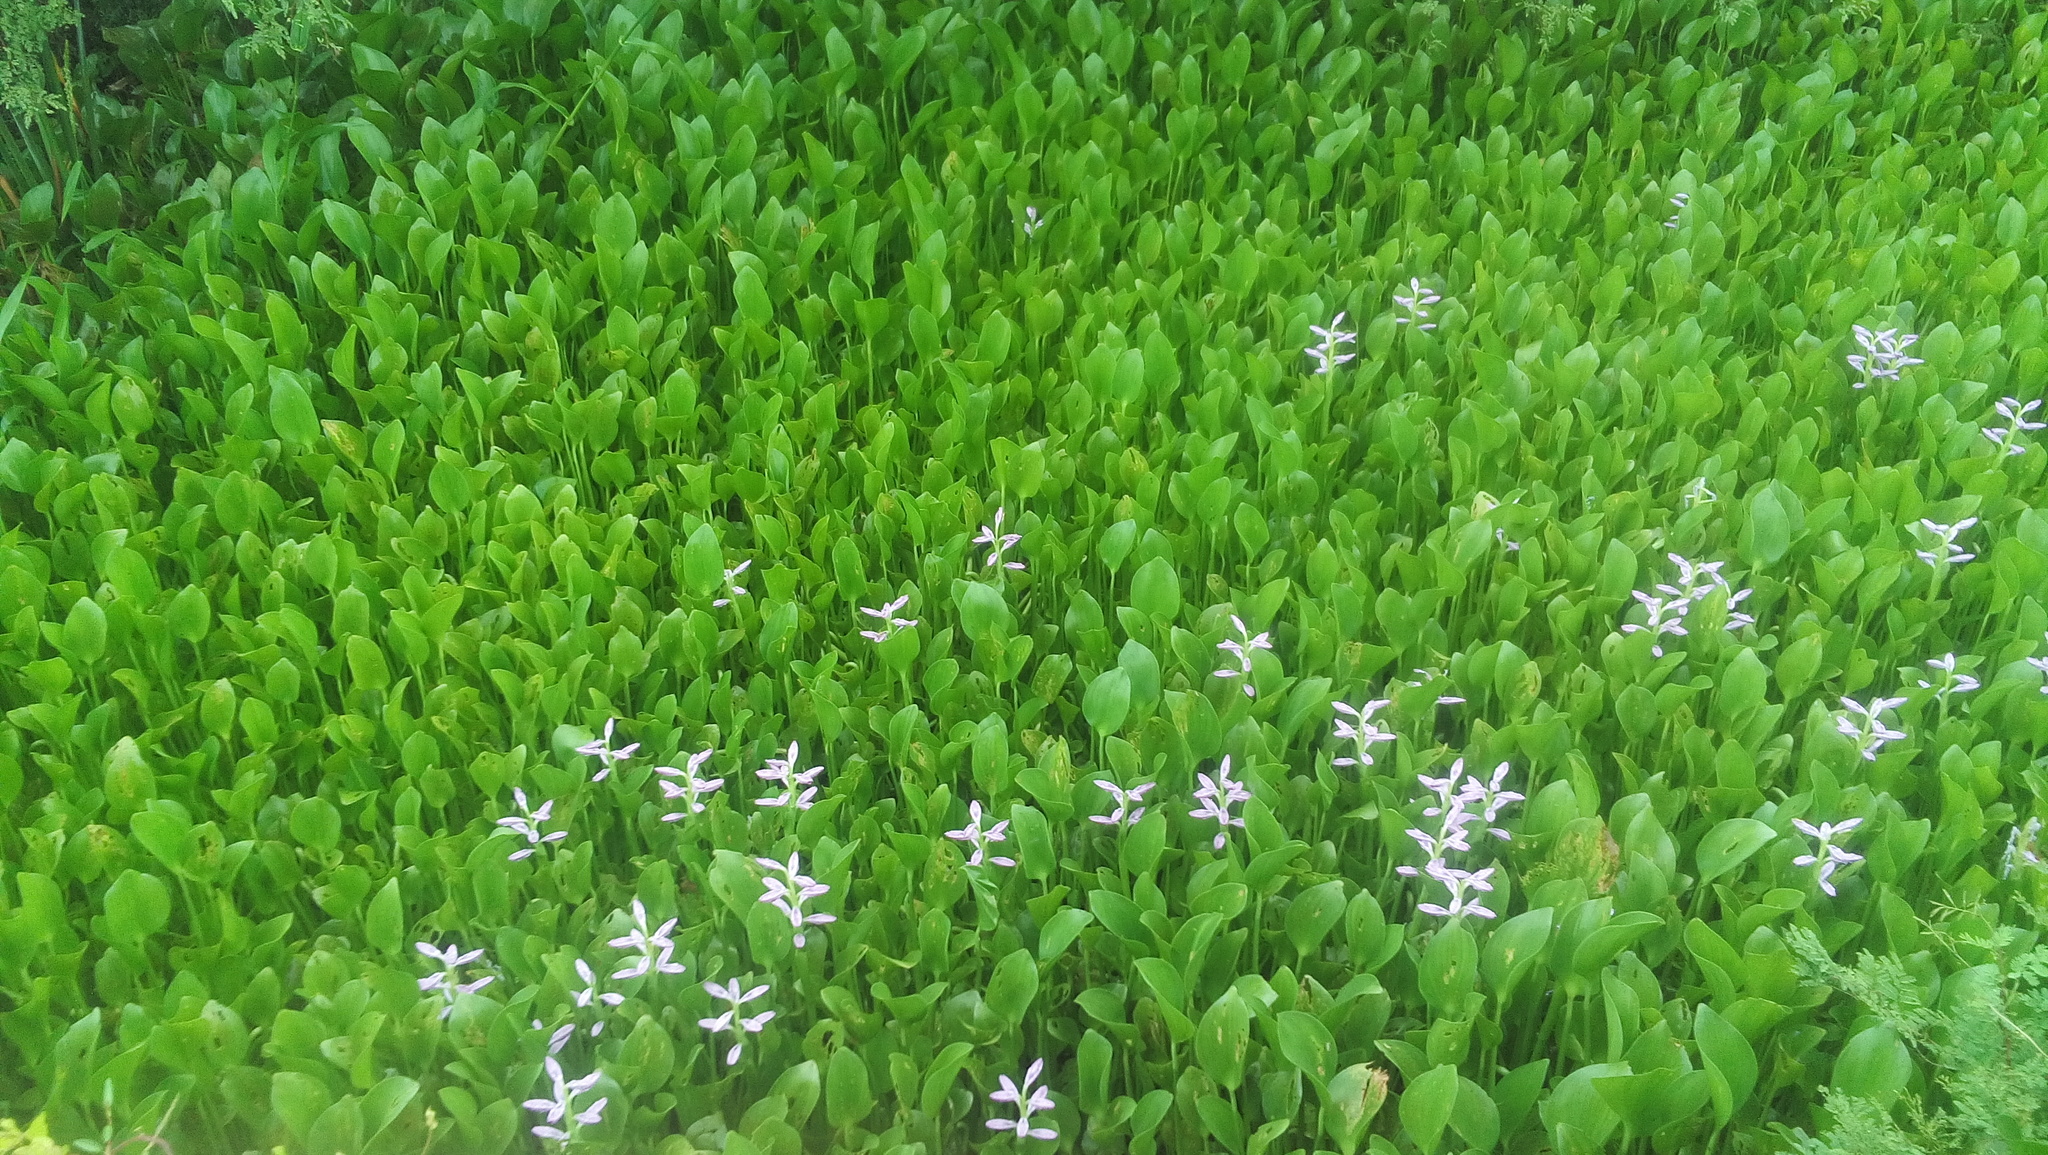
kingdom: Plantae
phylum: Tracheophyta
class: Liliopsida
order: Commelinales
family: Pontederiaceae
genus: Pontederia
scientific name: Pontederia crassipes
